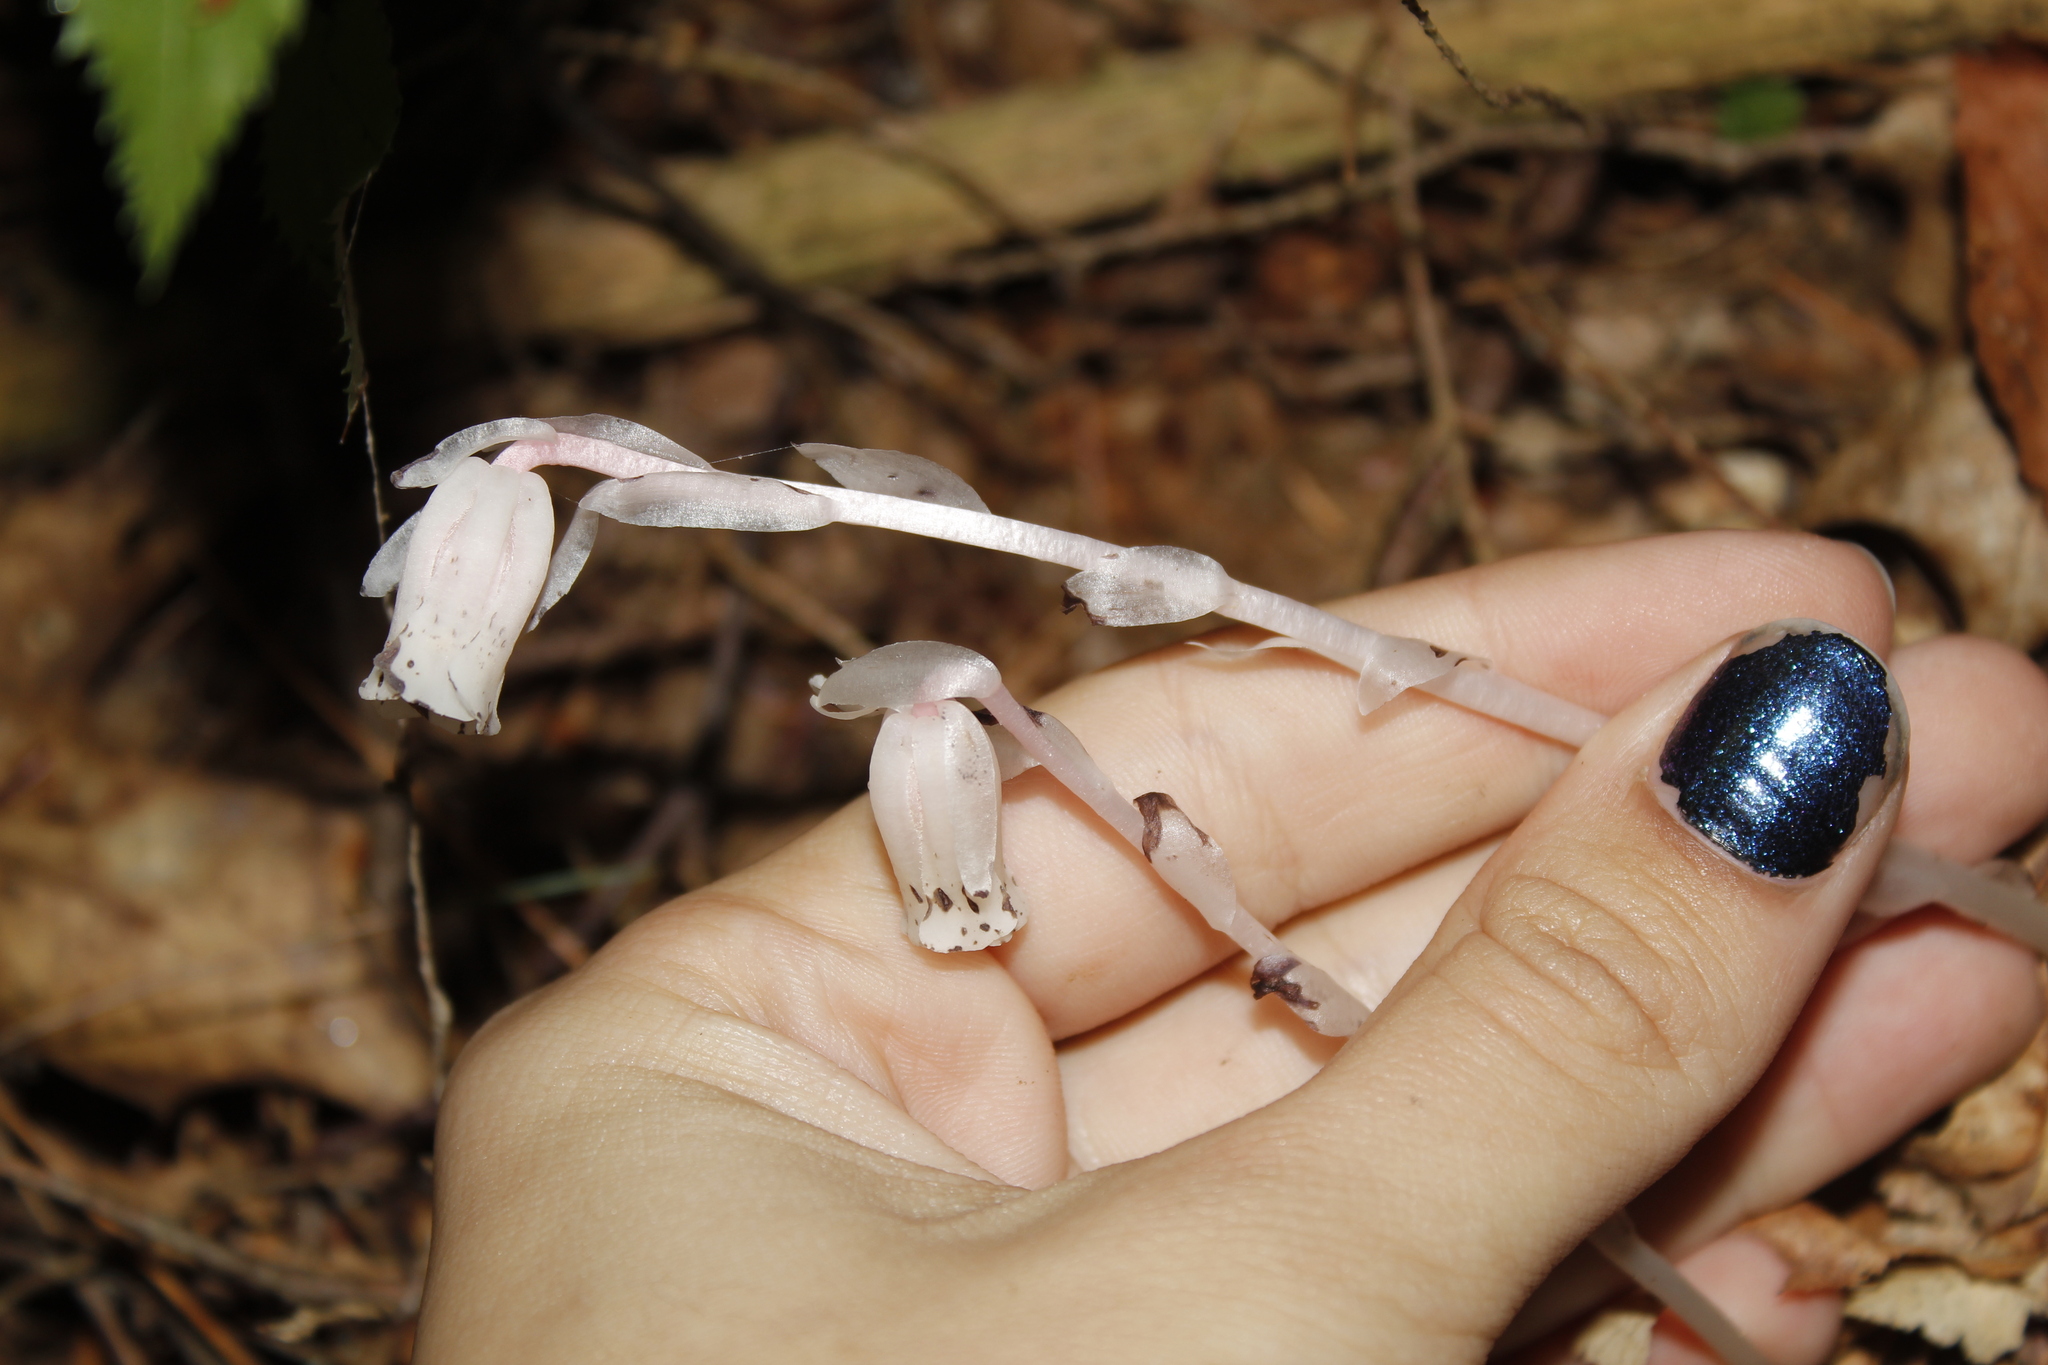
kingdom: Plantae
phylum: Tracheophyta
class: Magnoliopsida
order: Ericales
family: Ericaceae
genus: Monotropa
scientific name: Monotropa uniflora
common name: Convulsion root
